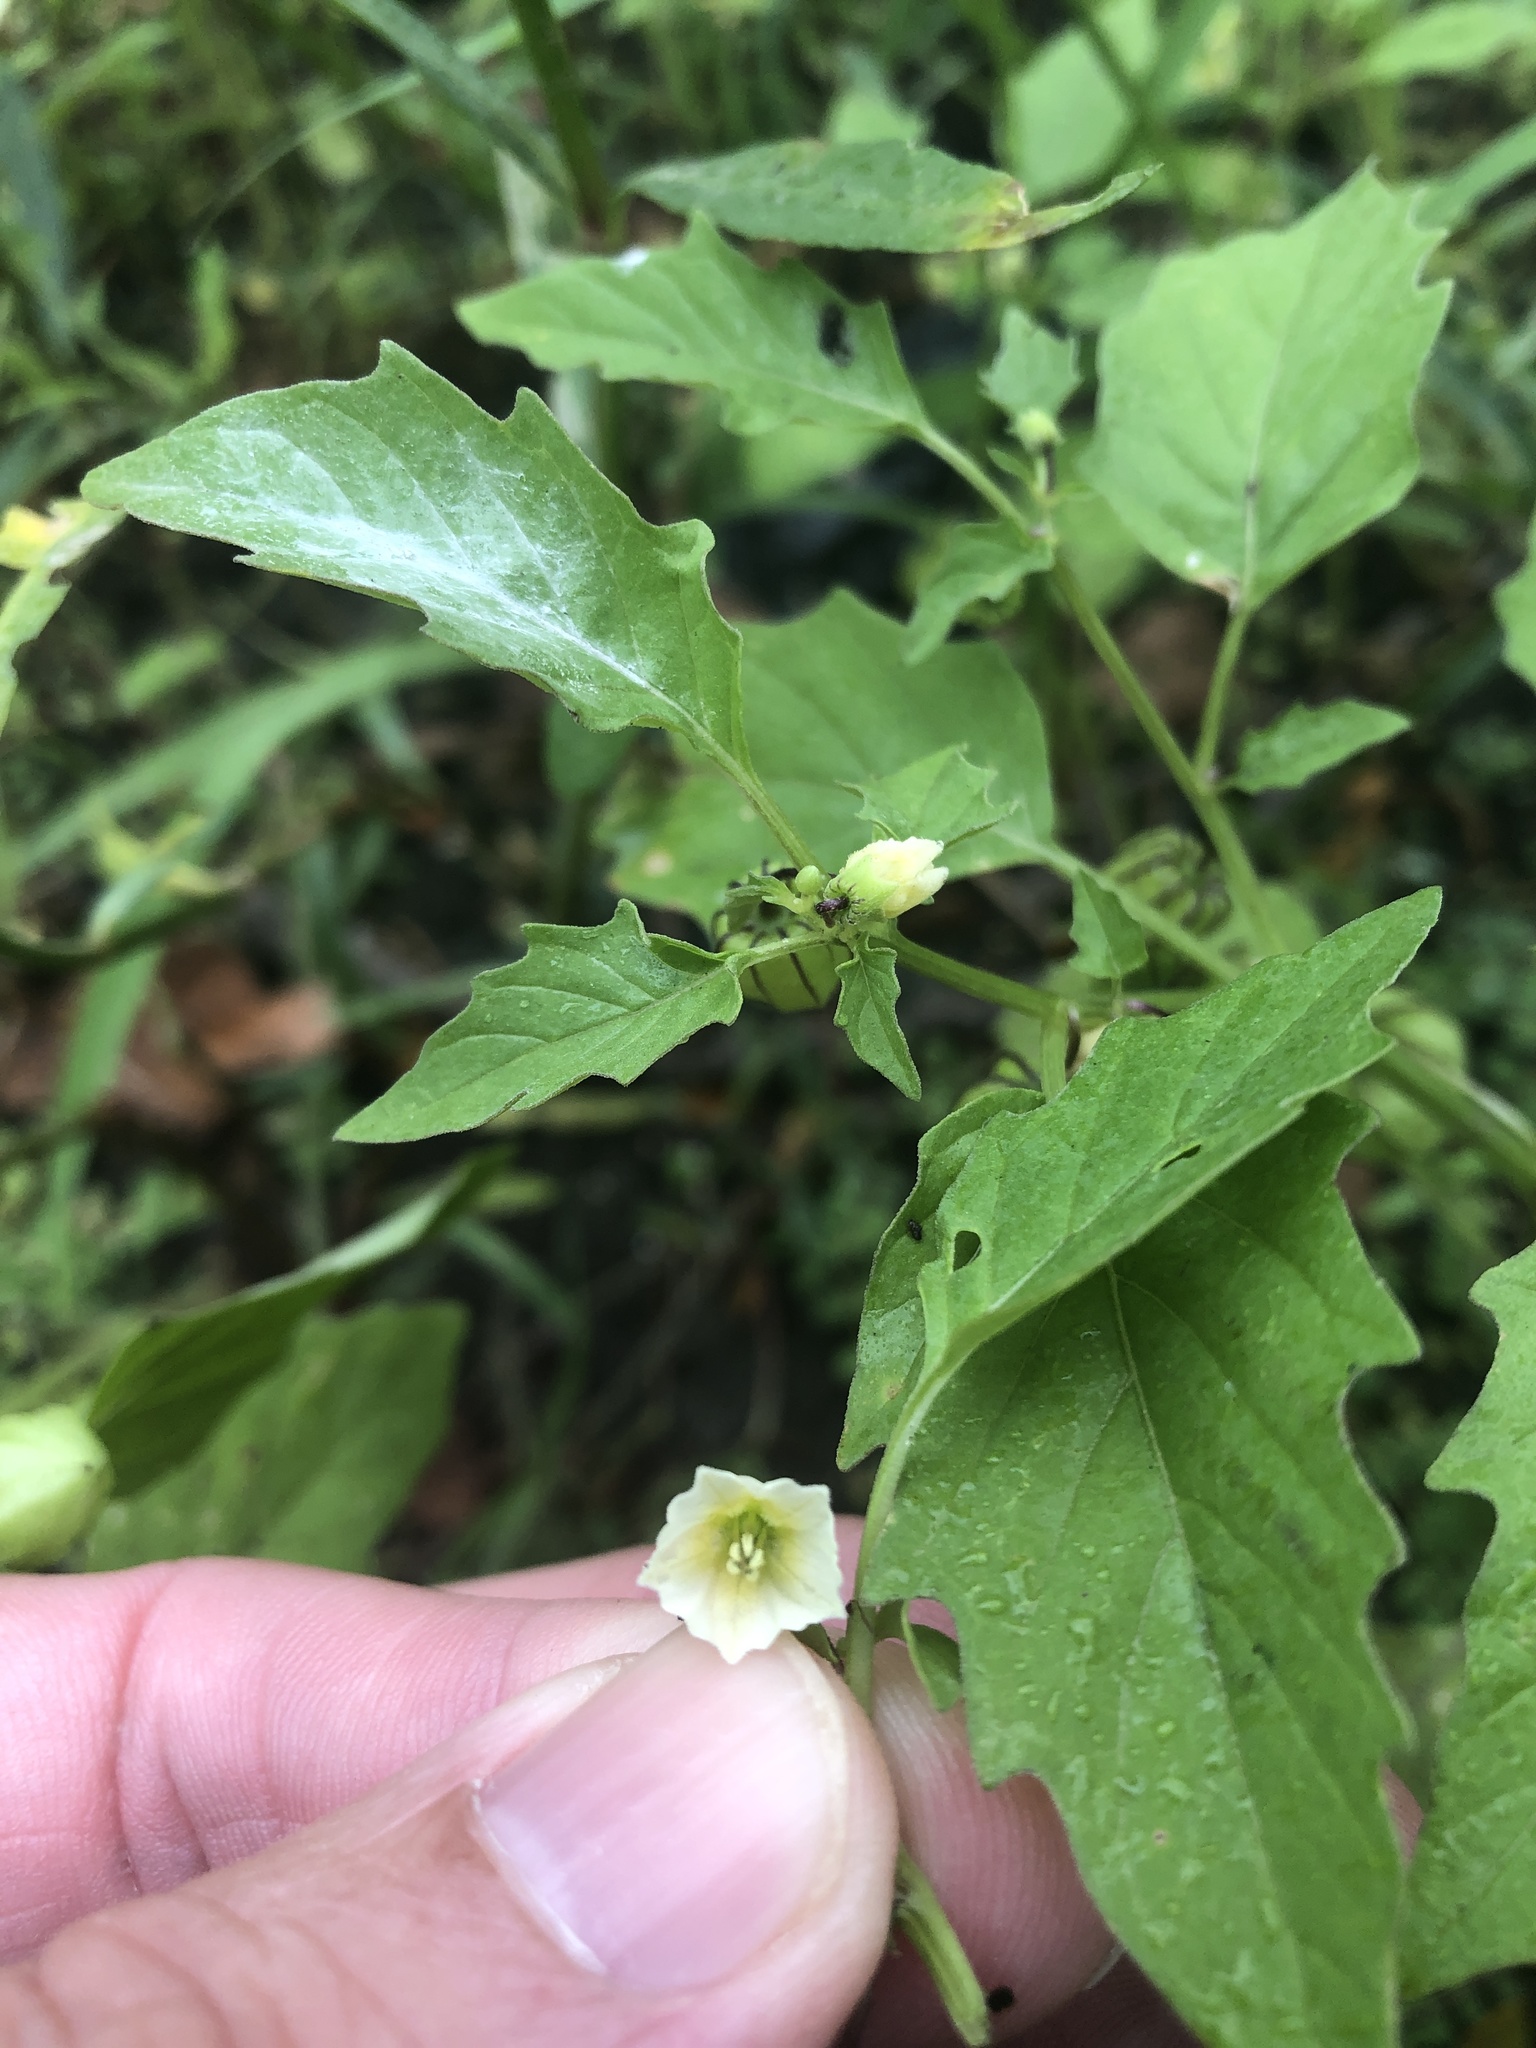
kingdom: Plantae
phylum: Tracheophyta
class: Magnoliopsida
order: Solanales
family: Solanaceae
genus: Physalis
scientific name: Physalis angulata
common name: Angular winter-cherry
